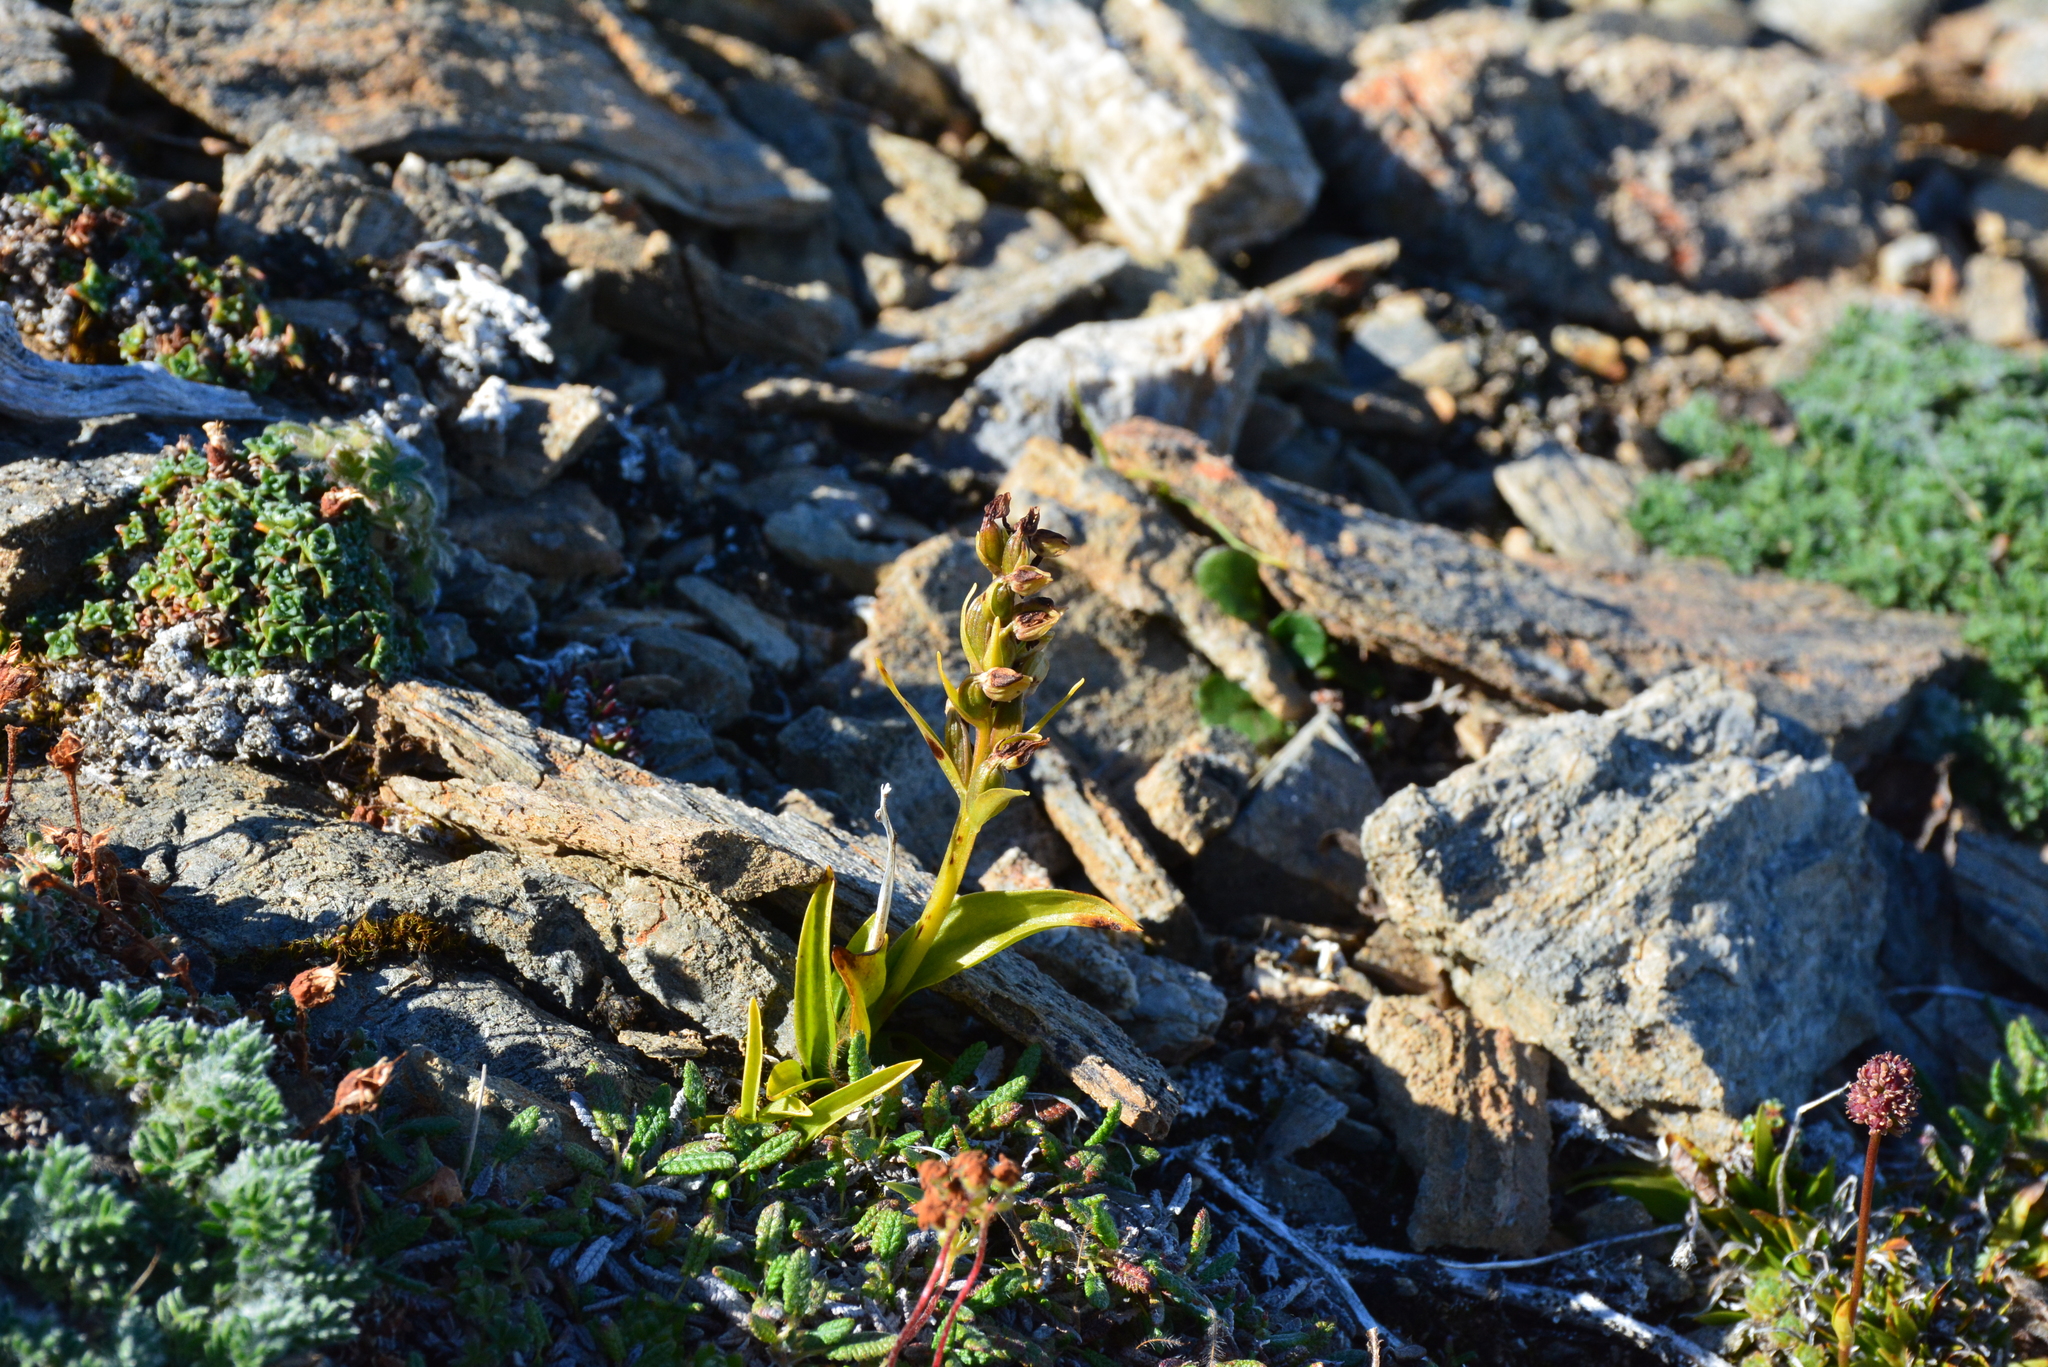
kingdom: Plantae
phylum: Tracheophyta
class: Liliopsida
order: Asparagales
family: Orchidaceae
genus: Dactylorhiza
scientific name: Dactylorhiza viridis
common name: Longbract frog orchid
